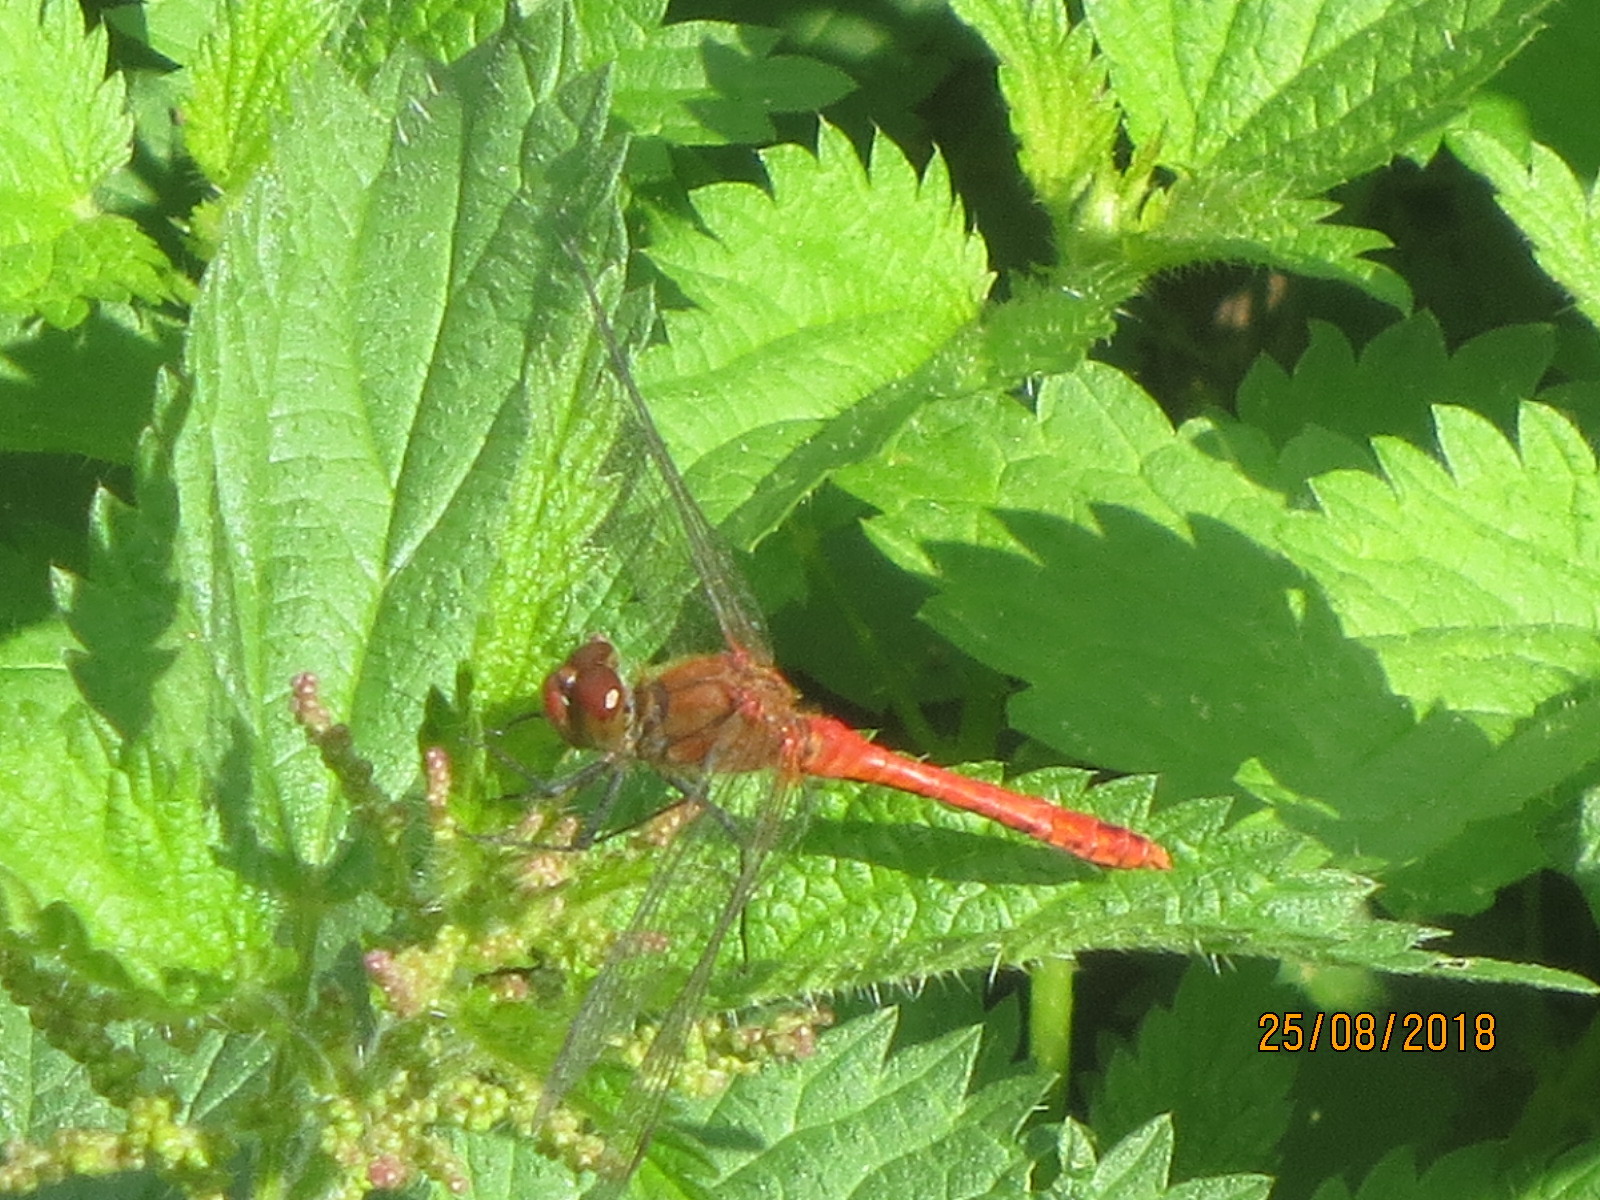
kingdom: Animalia
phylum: Arthropoda
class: Insecta
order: Odonata
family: Libellulidae
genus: Sympetrum
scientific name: Sympetrum sanguineum
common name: Ruddy darter
